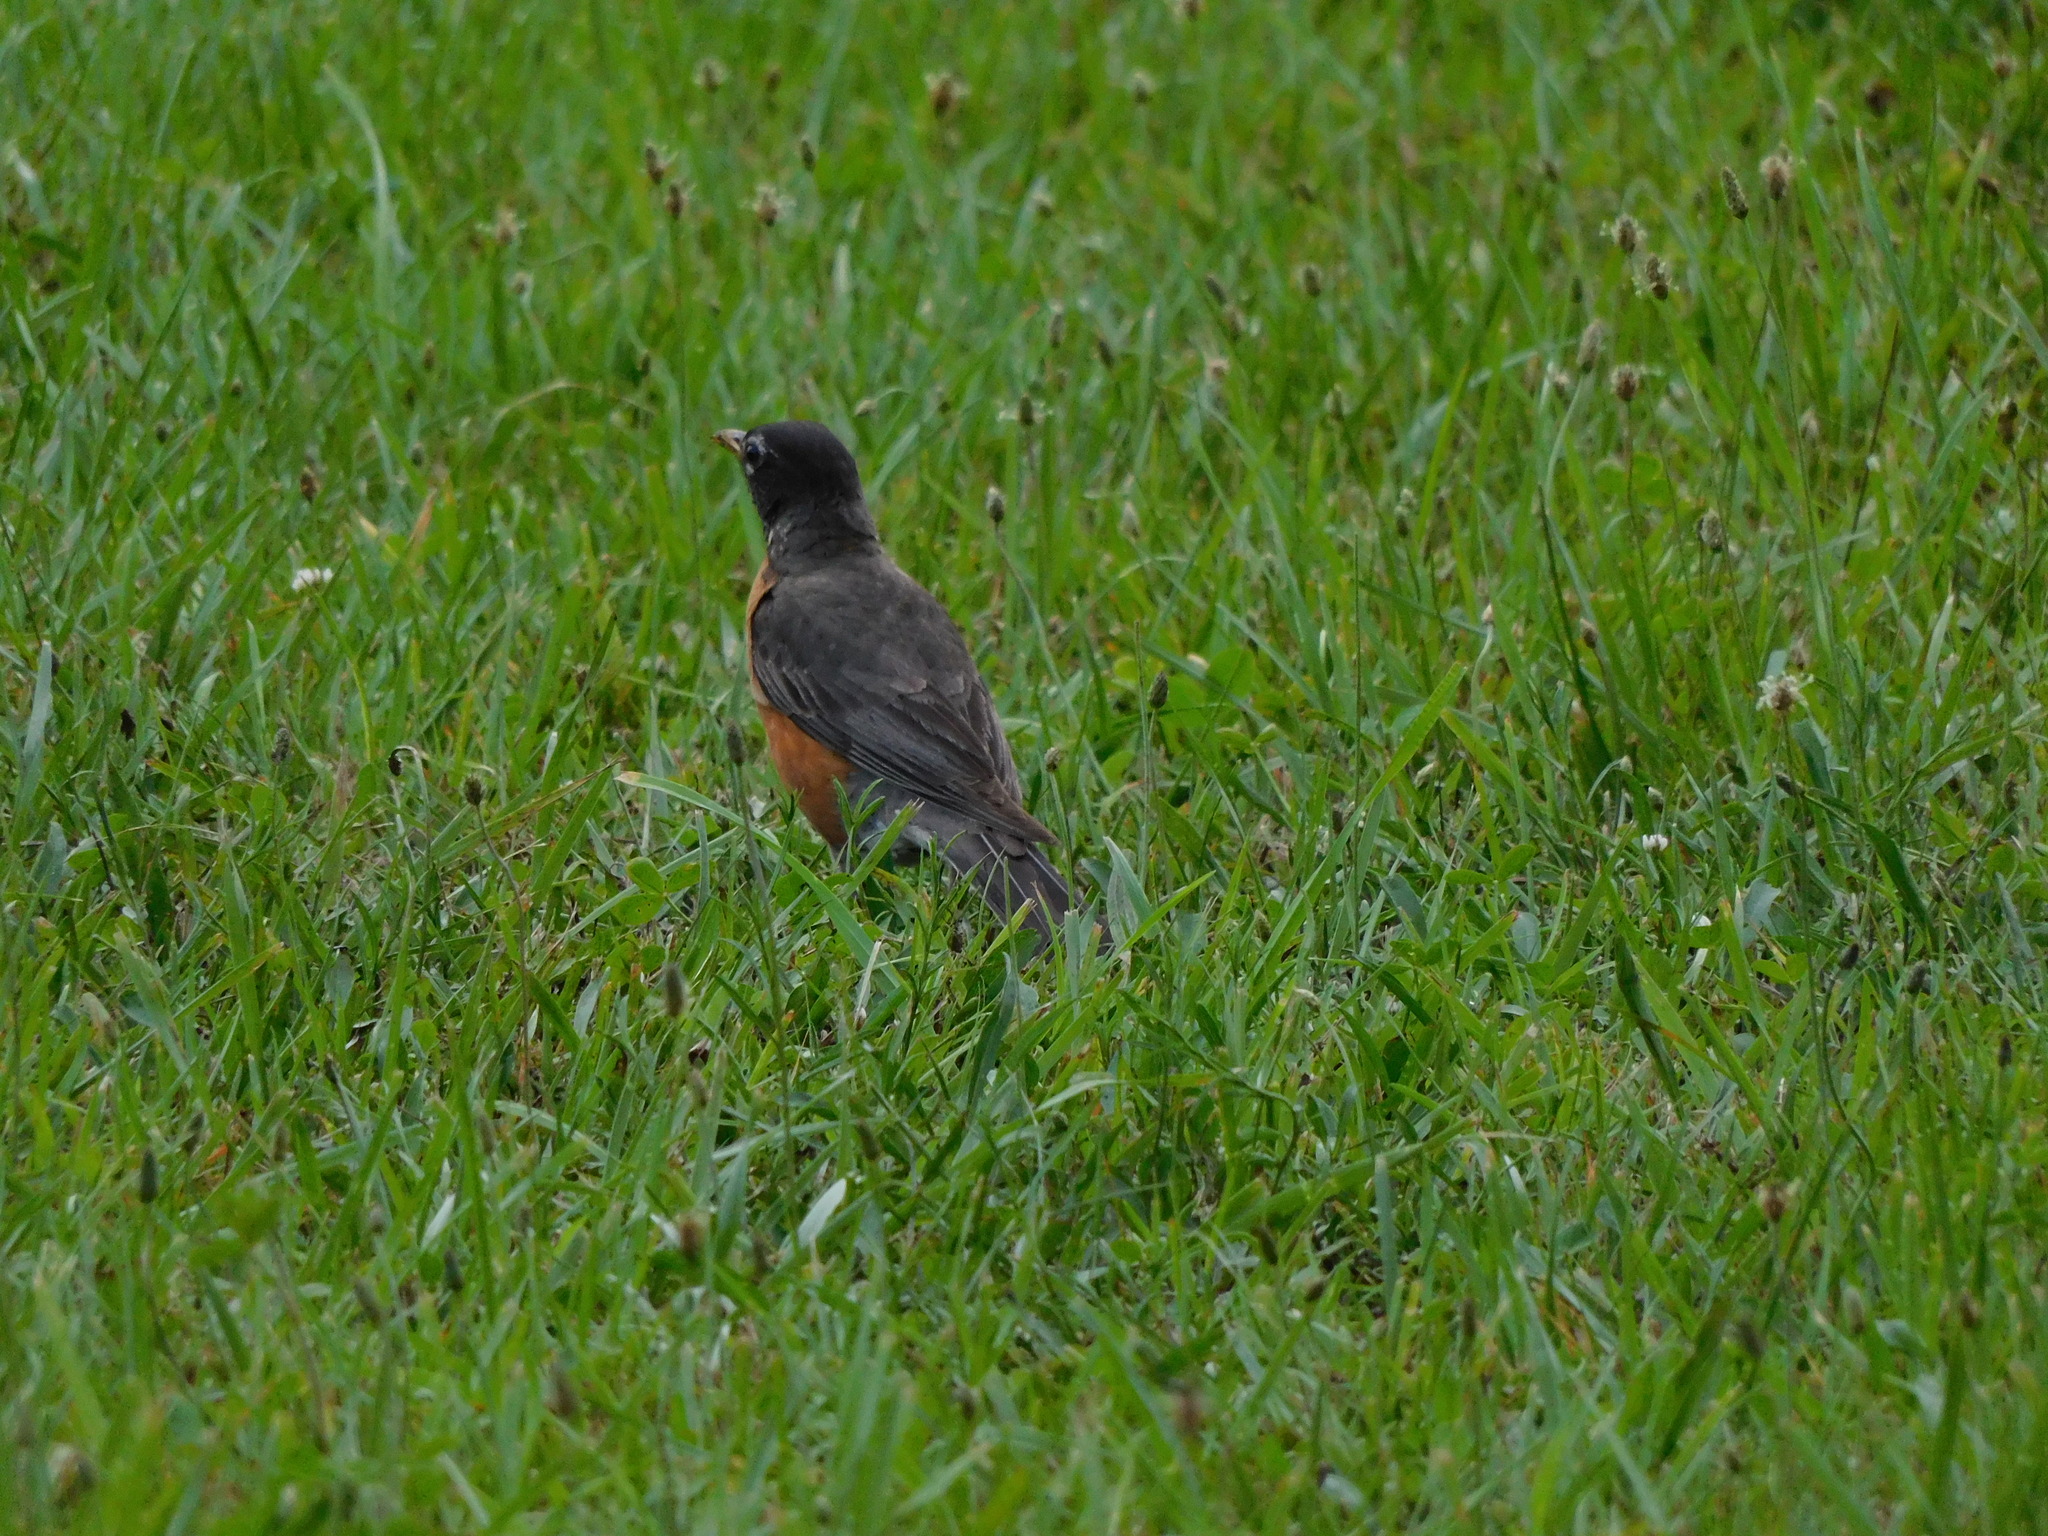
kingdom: Animalia
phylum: Chordata
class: Aves
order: Passeriformes
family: Turdidae
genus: Turdus
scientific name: Turdus migratorius
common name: American robin
